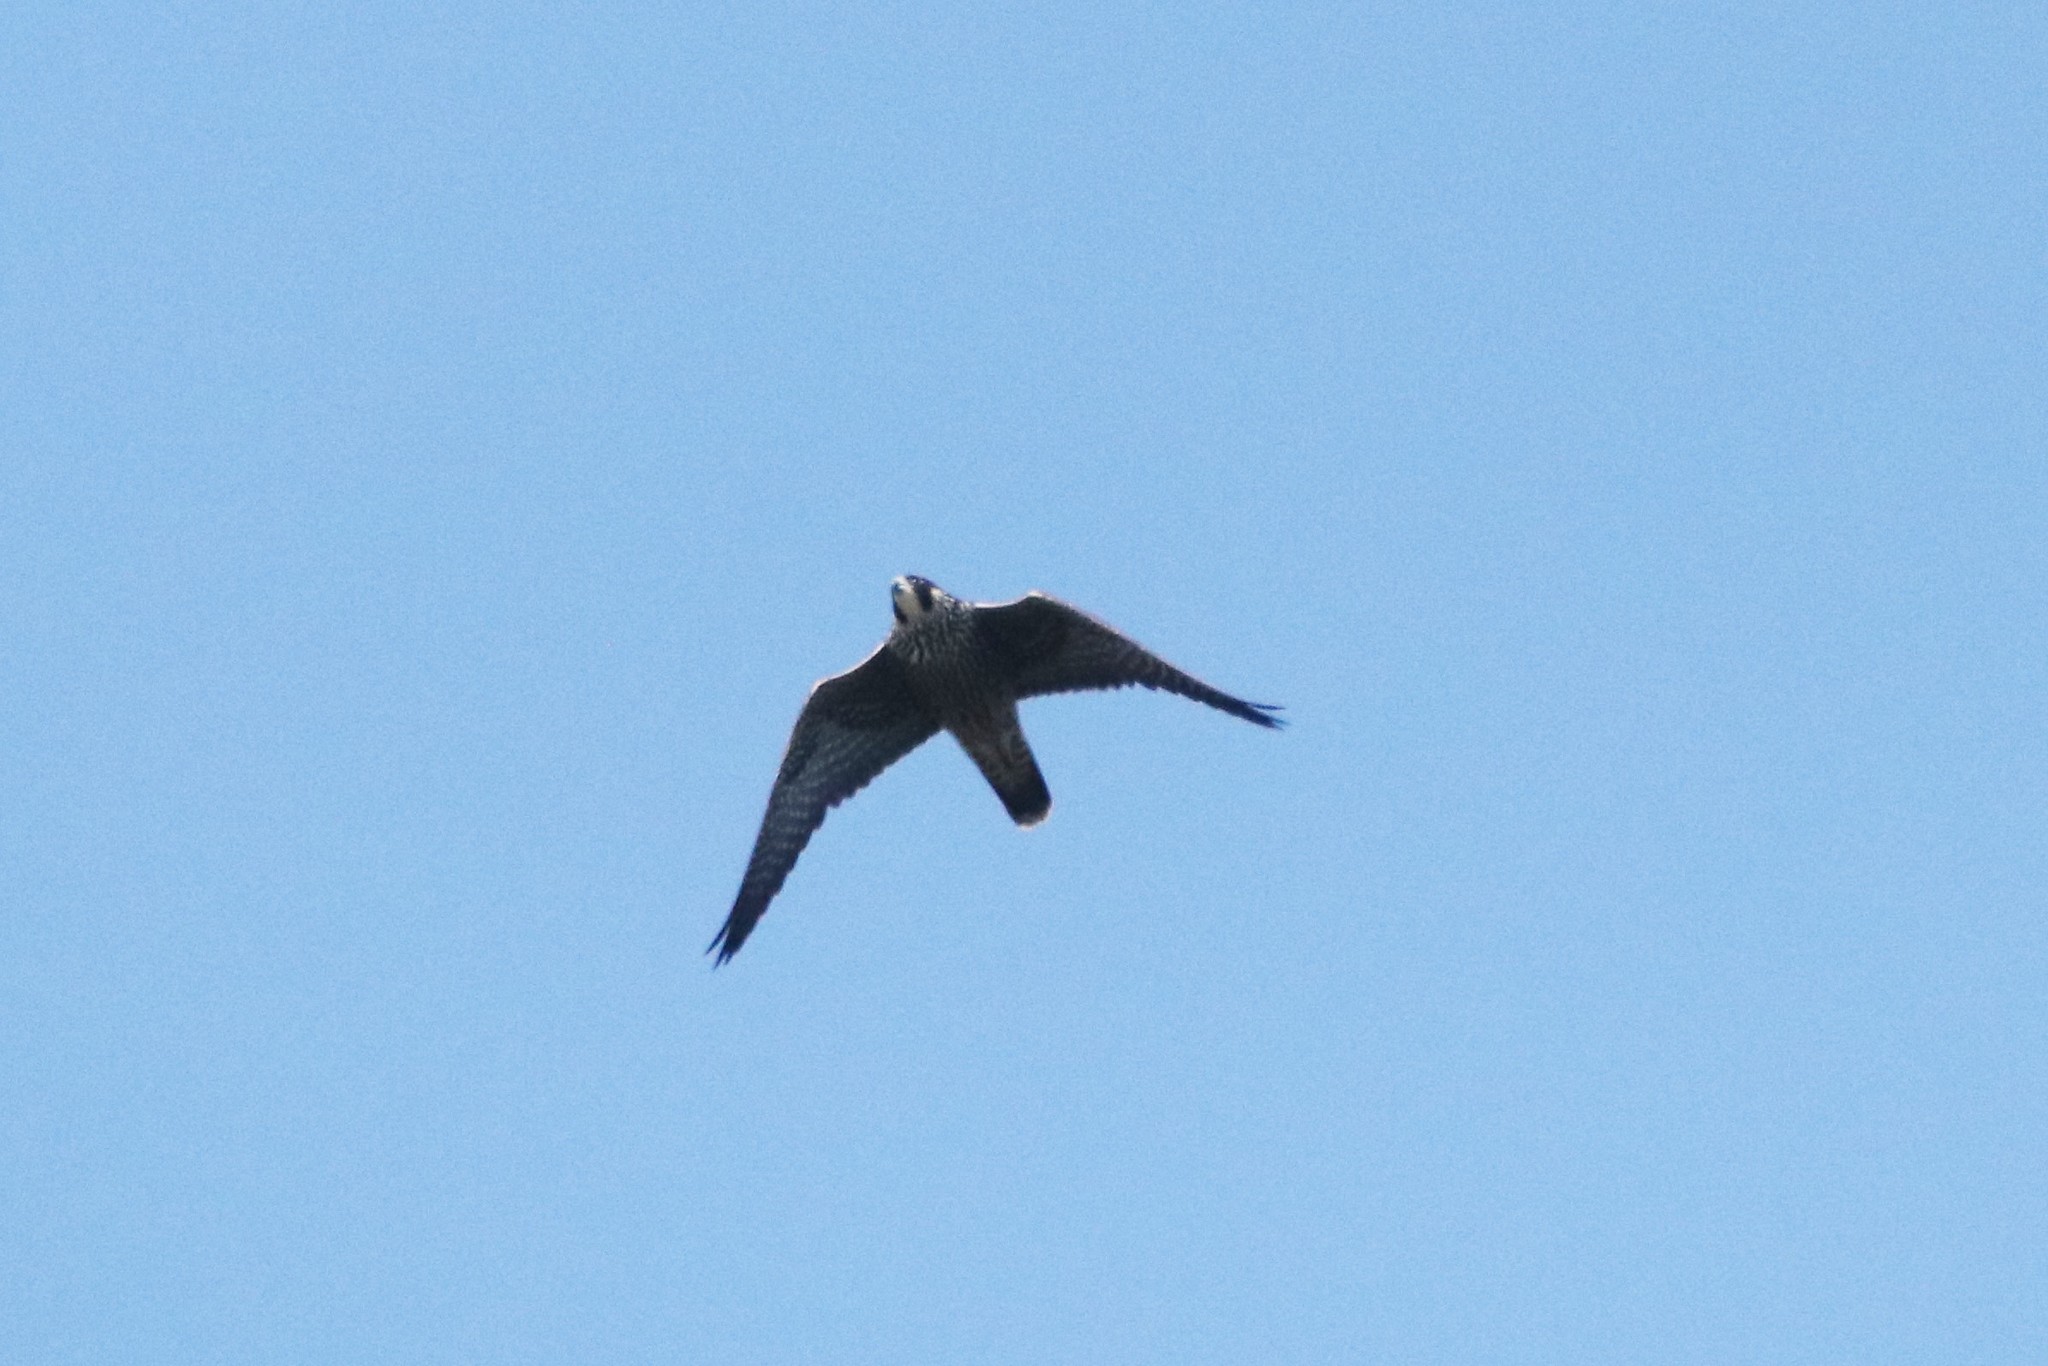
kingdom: Animalia
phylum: Chordata
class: Aves
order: Falconiformes
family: Falconidae
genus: Falco
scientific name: Falco peregrinus
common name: Peregrine falcon
